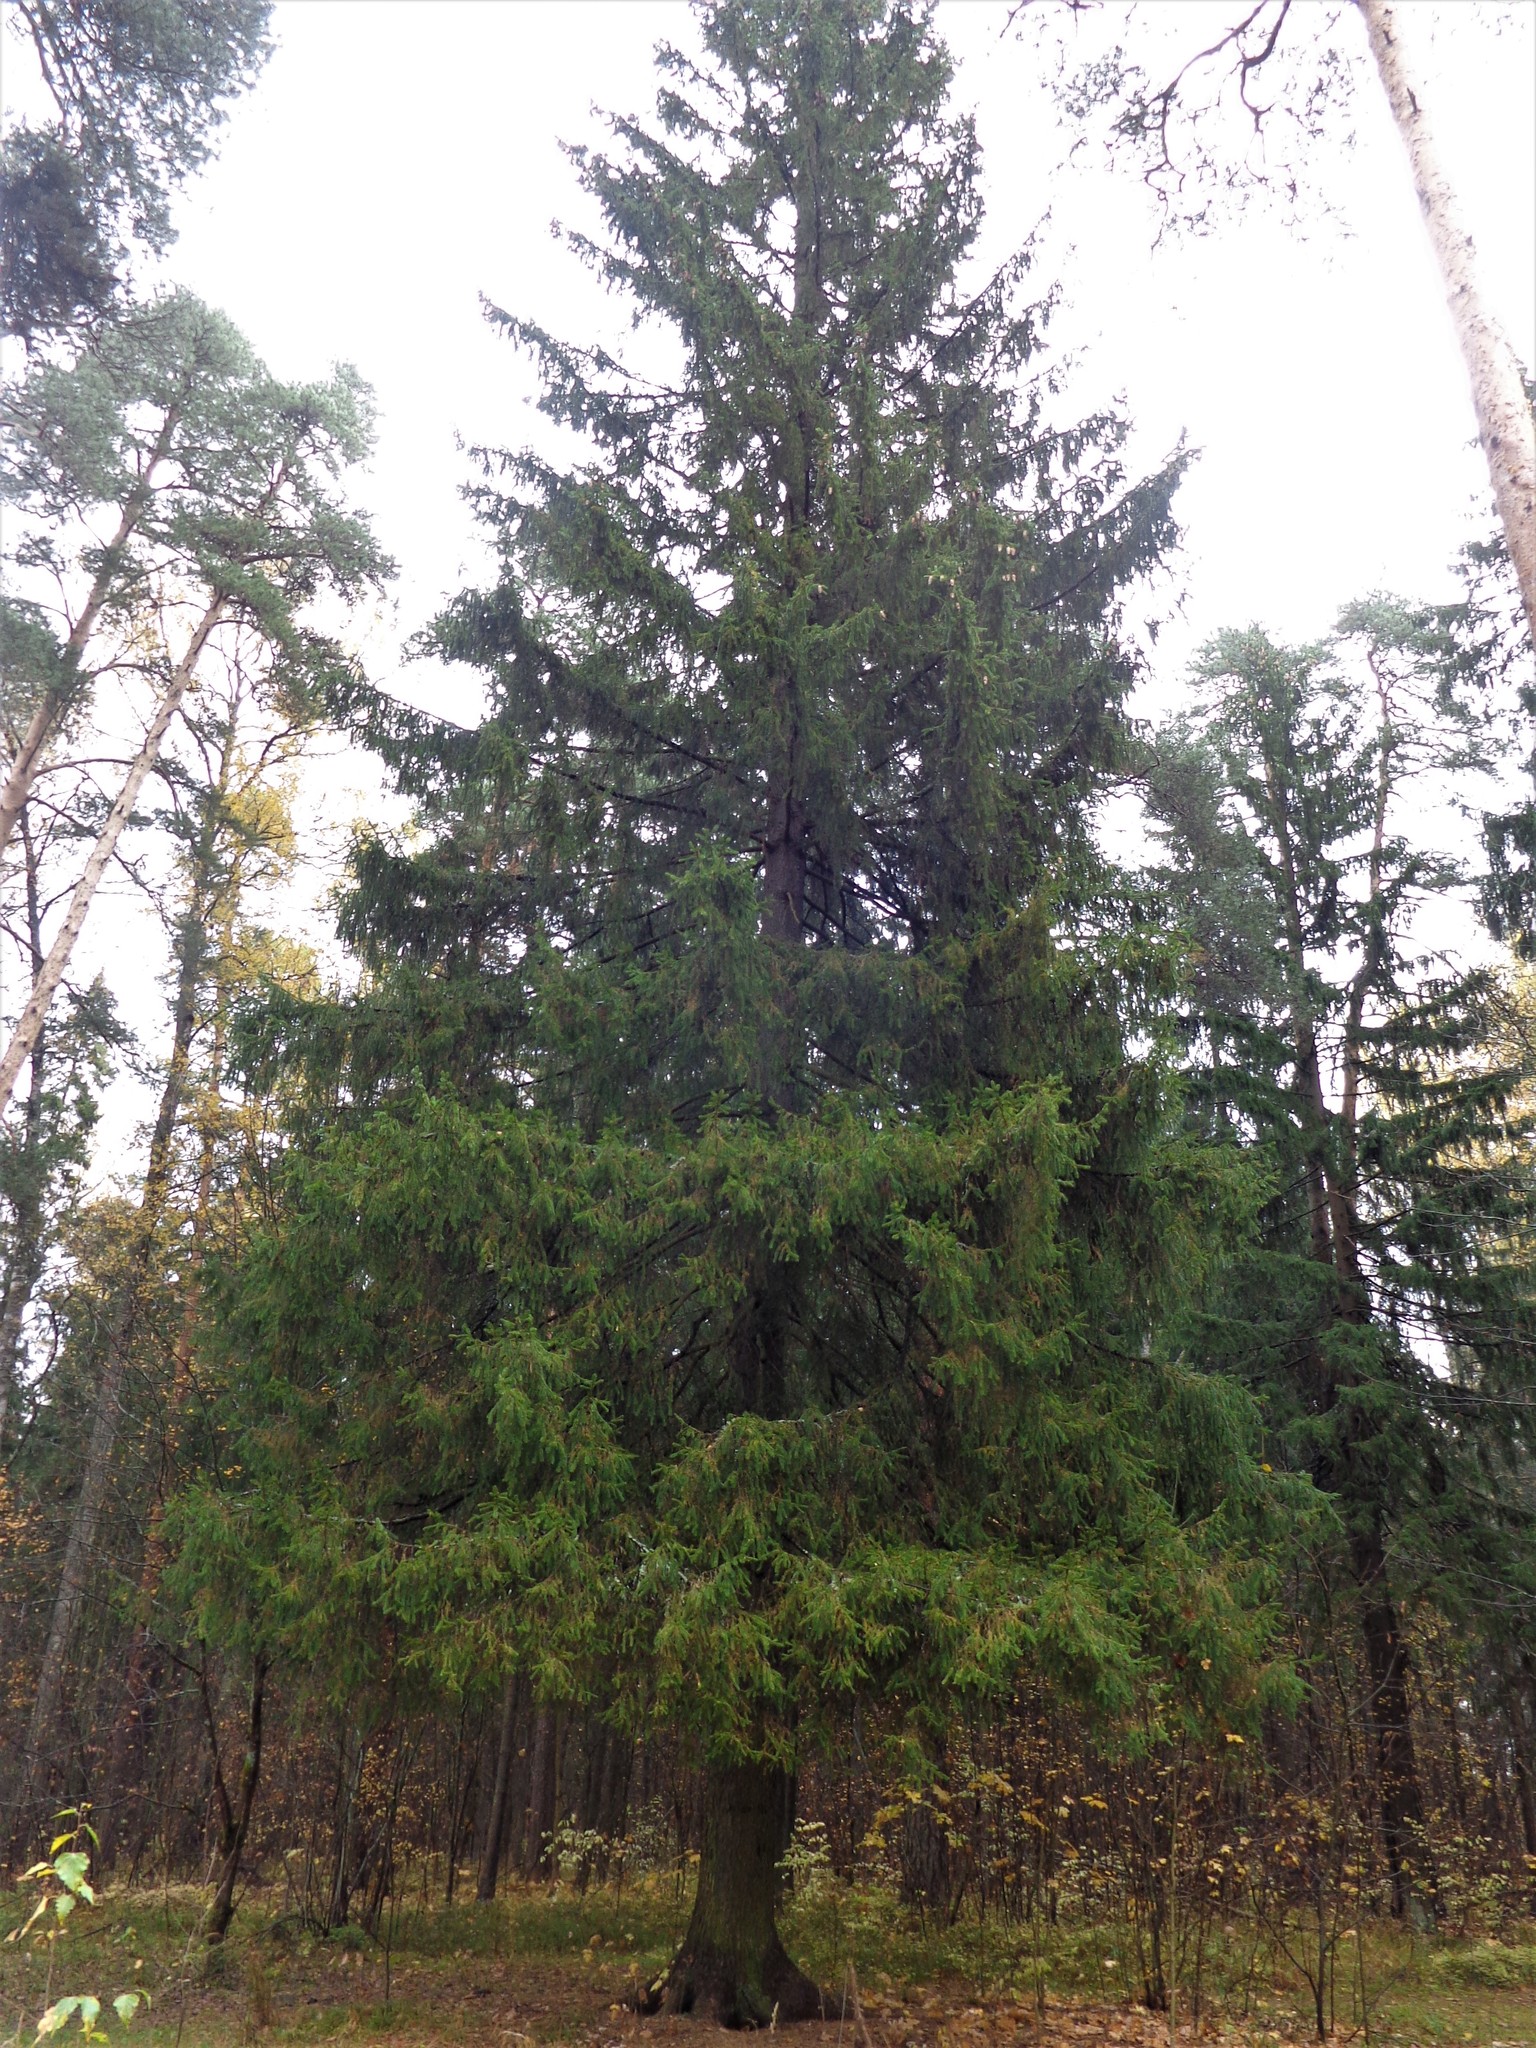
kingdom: Plantae
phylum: Tracheophyta
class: Pinopsida
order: Pinales
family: Pinaceae
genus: Picea
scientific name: Picea abies
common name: Norway spruce
